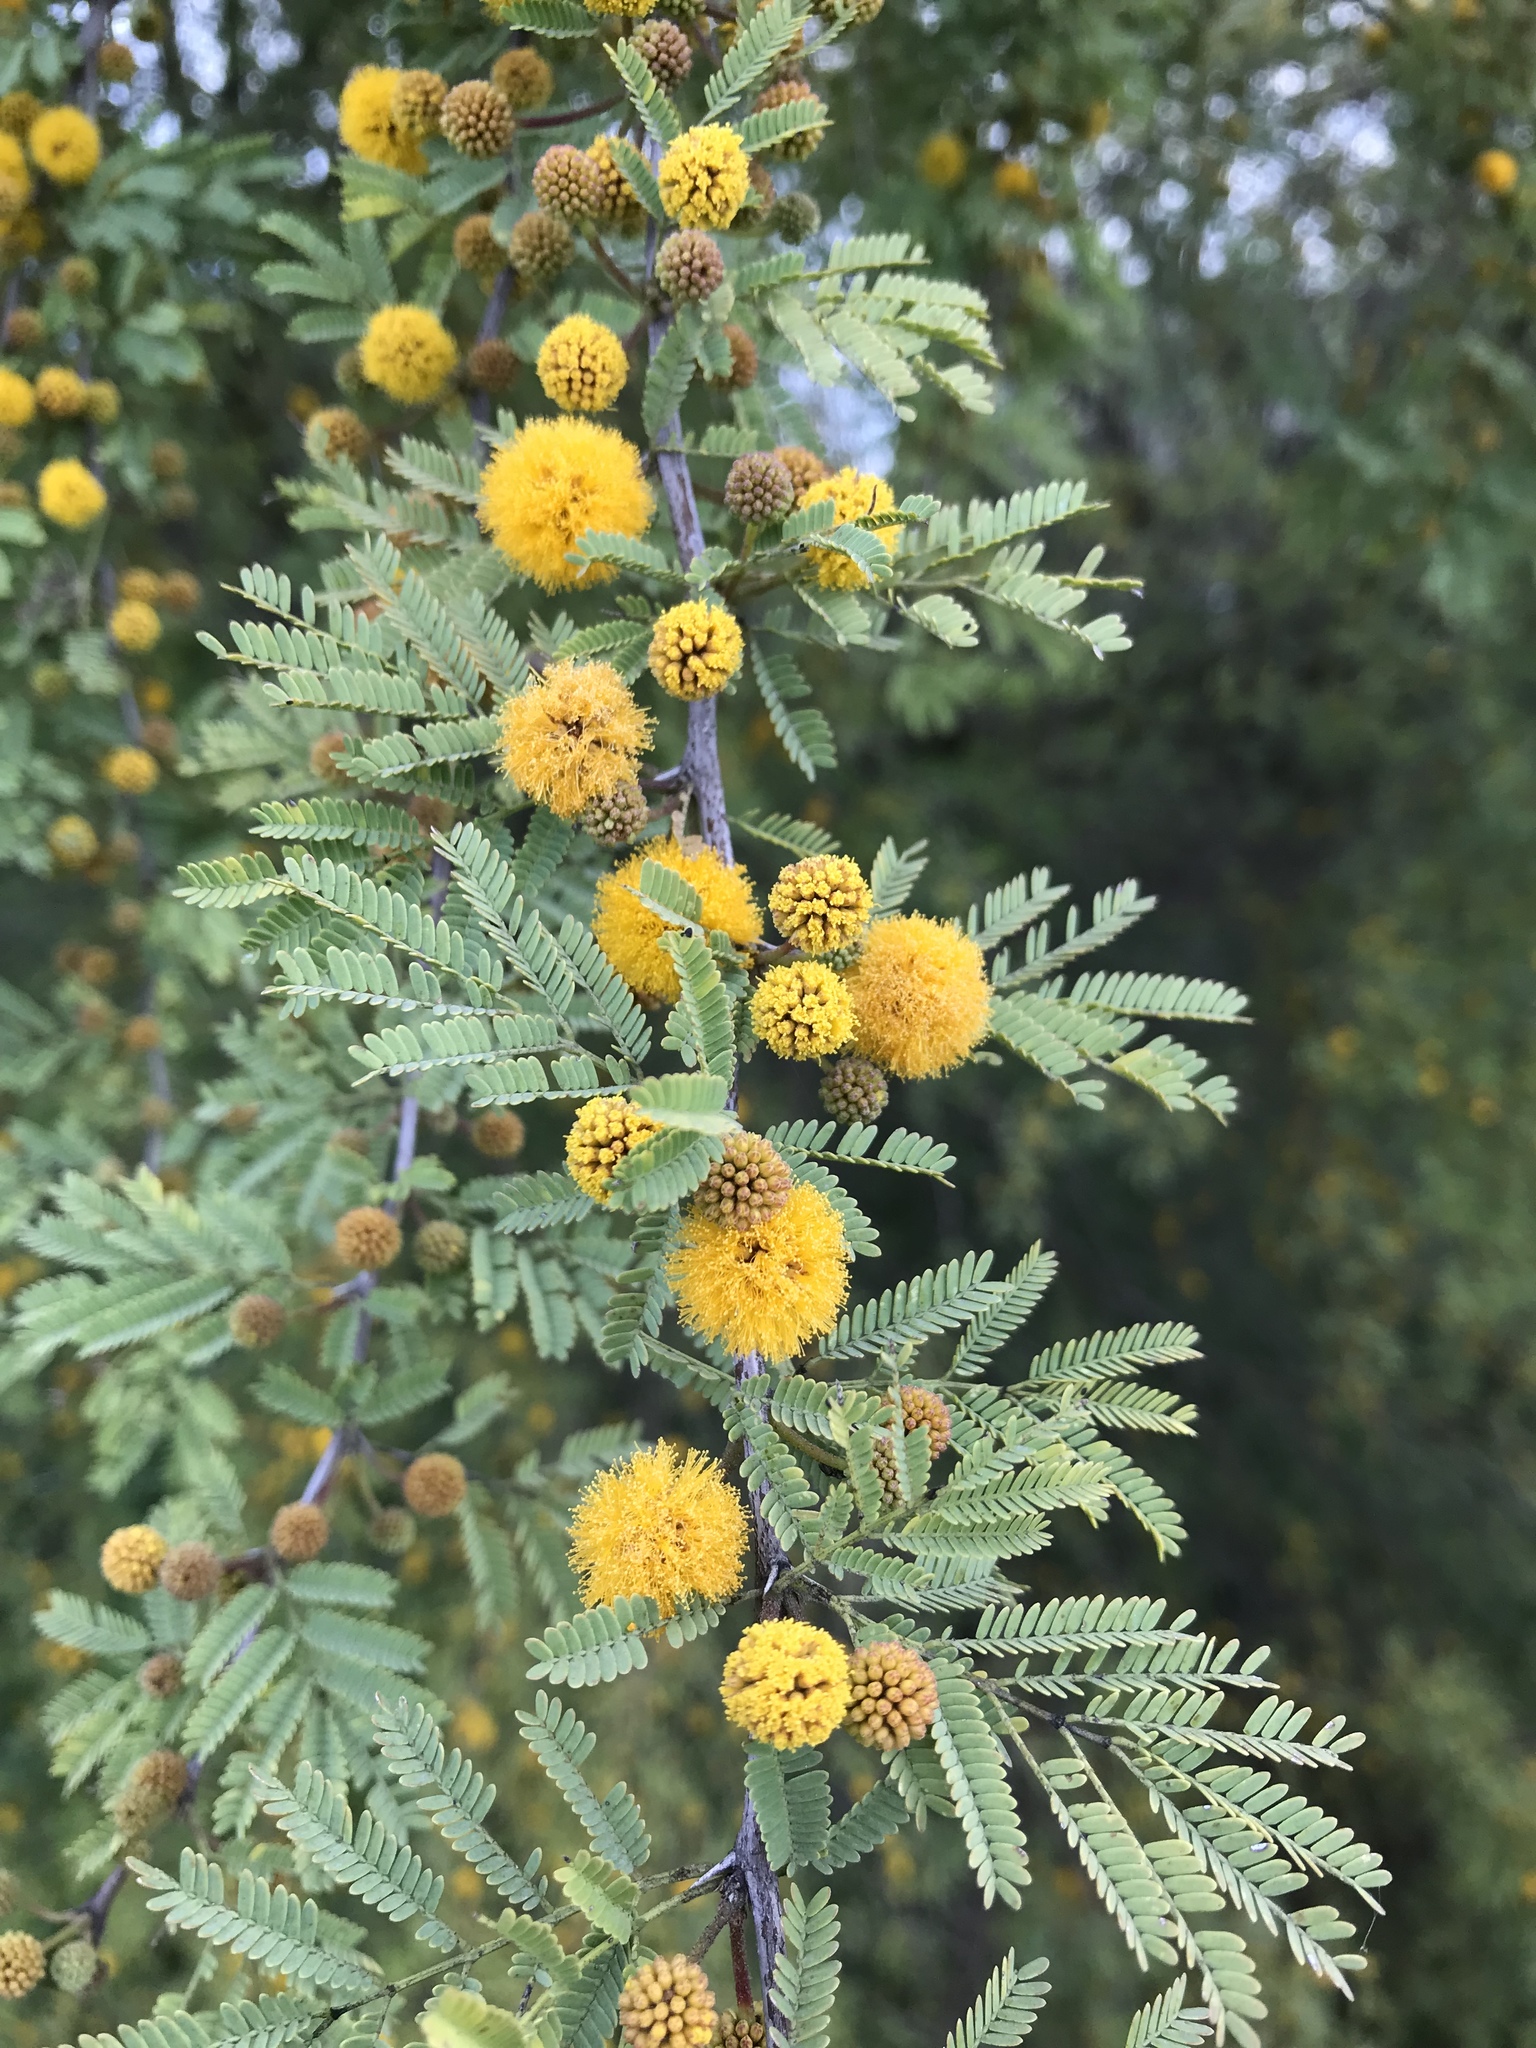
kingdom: Plantae
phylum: Tracheophyta
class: Magnoliopsida
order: Fabales
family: Fabaceae
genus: Vachellia
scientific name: Vachellia farnesiana
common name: Sweet acacia
